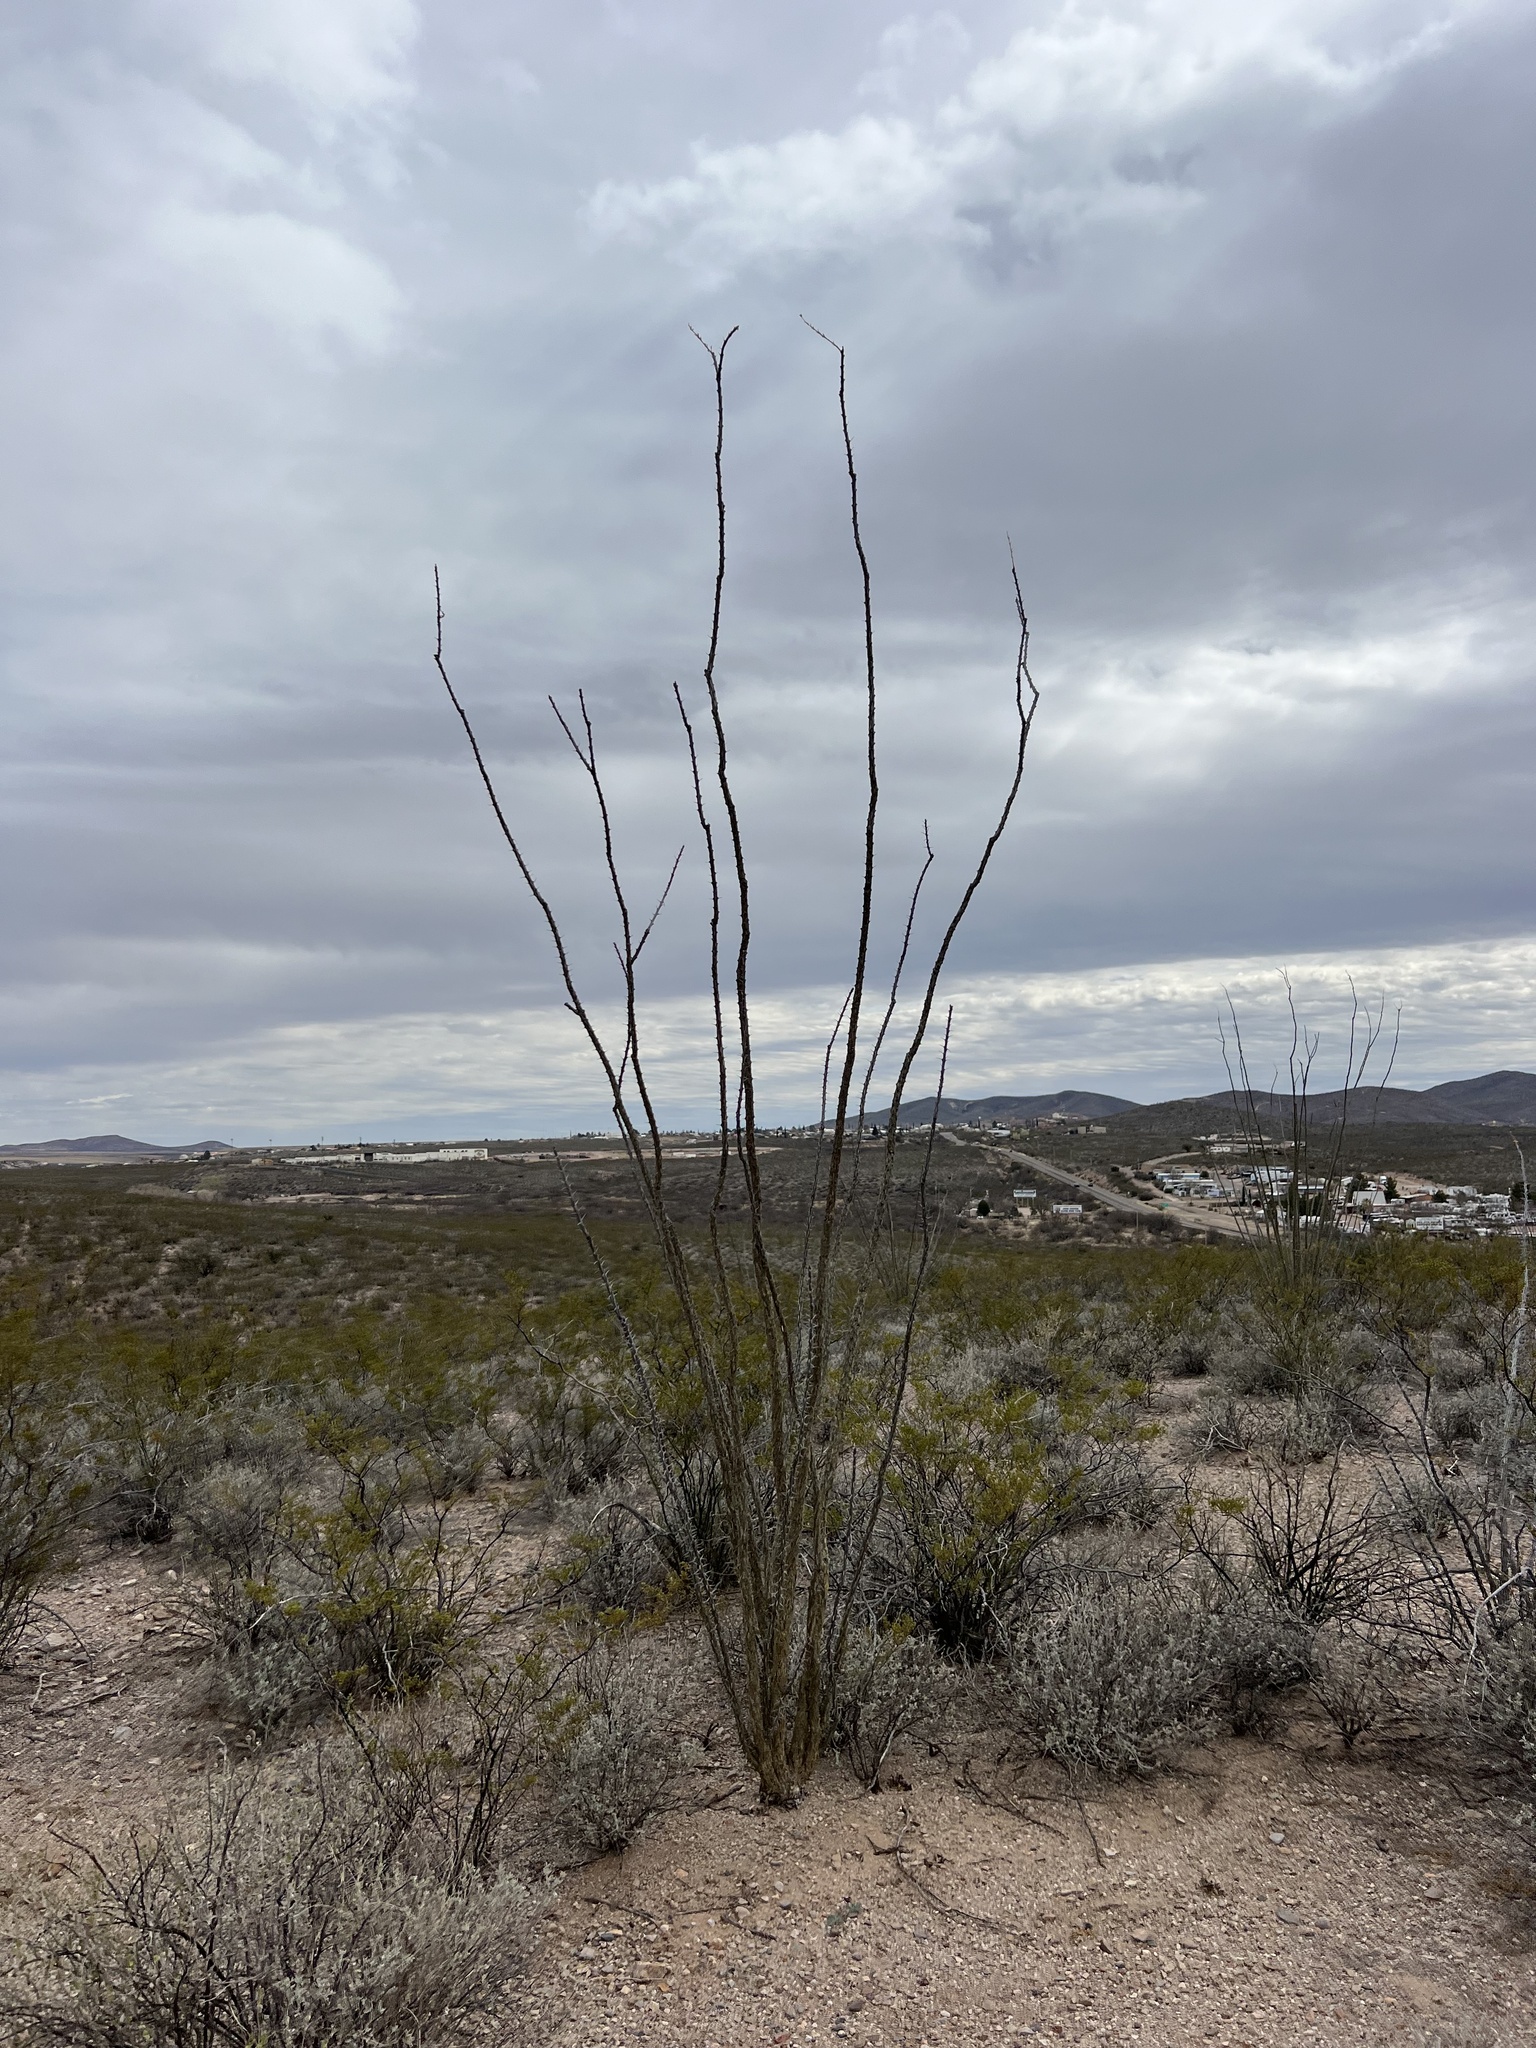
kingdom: Plantae
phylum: Tracheophyta
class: Magnoliopsida
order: Ericales
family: Fouquieriaceae
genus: Fouquieria
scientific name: Fouquieria splendens
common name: Vine-cactus
